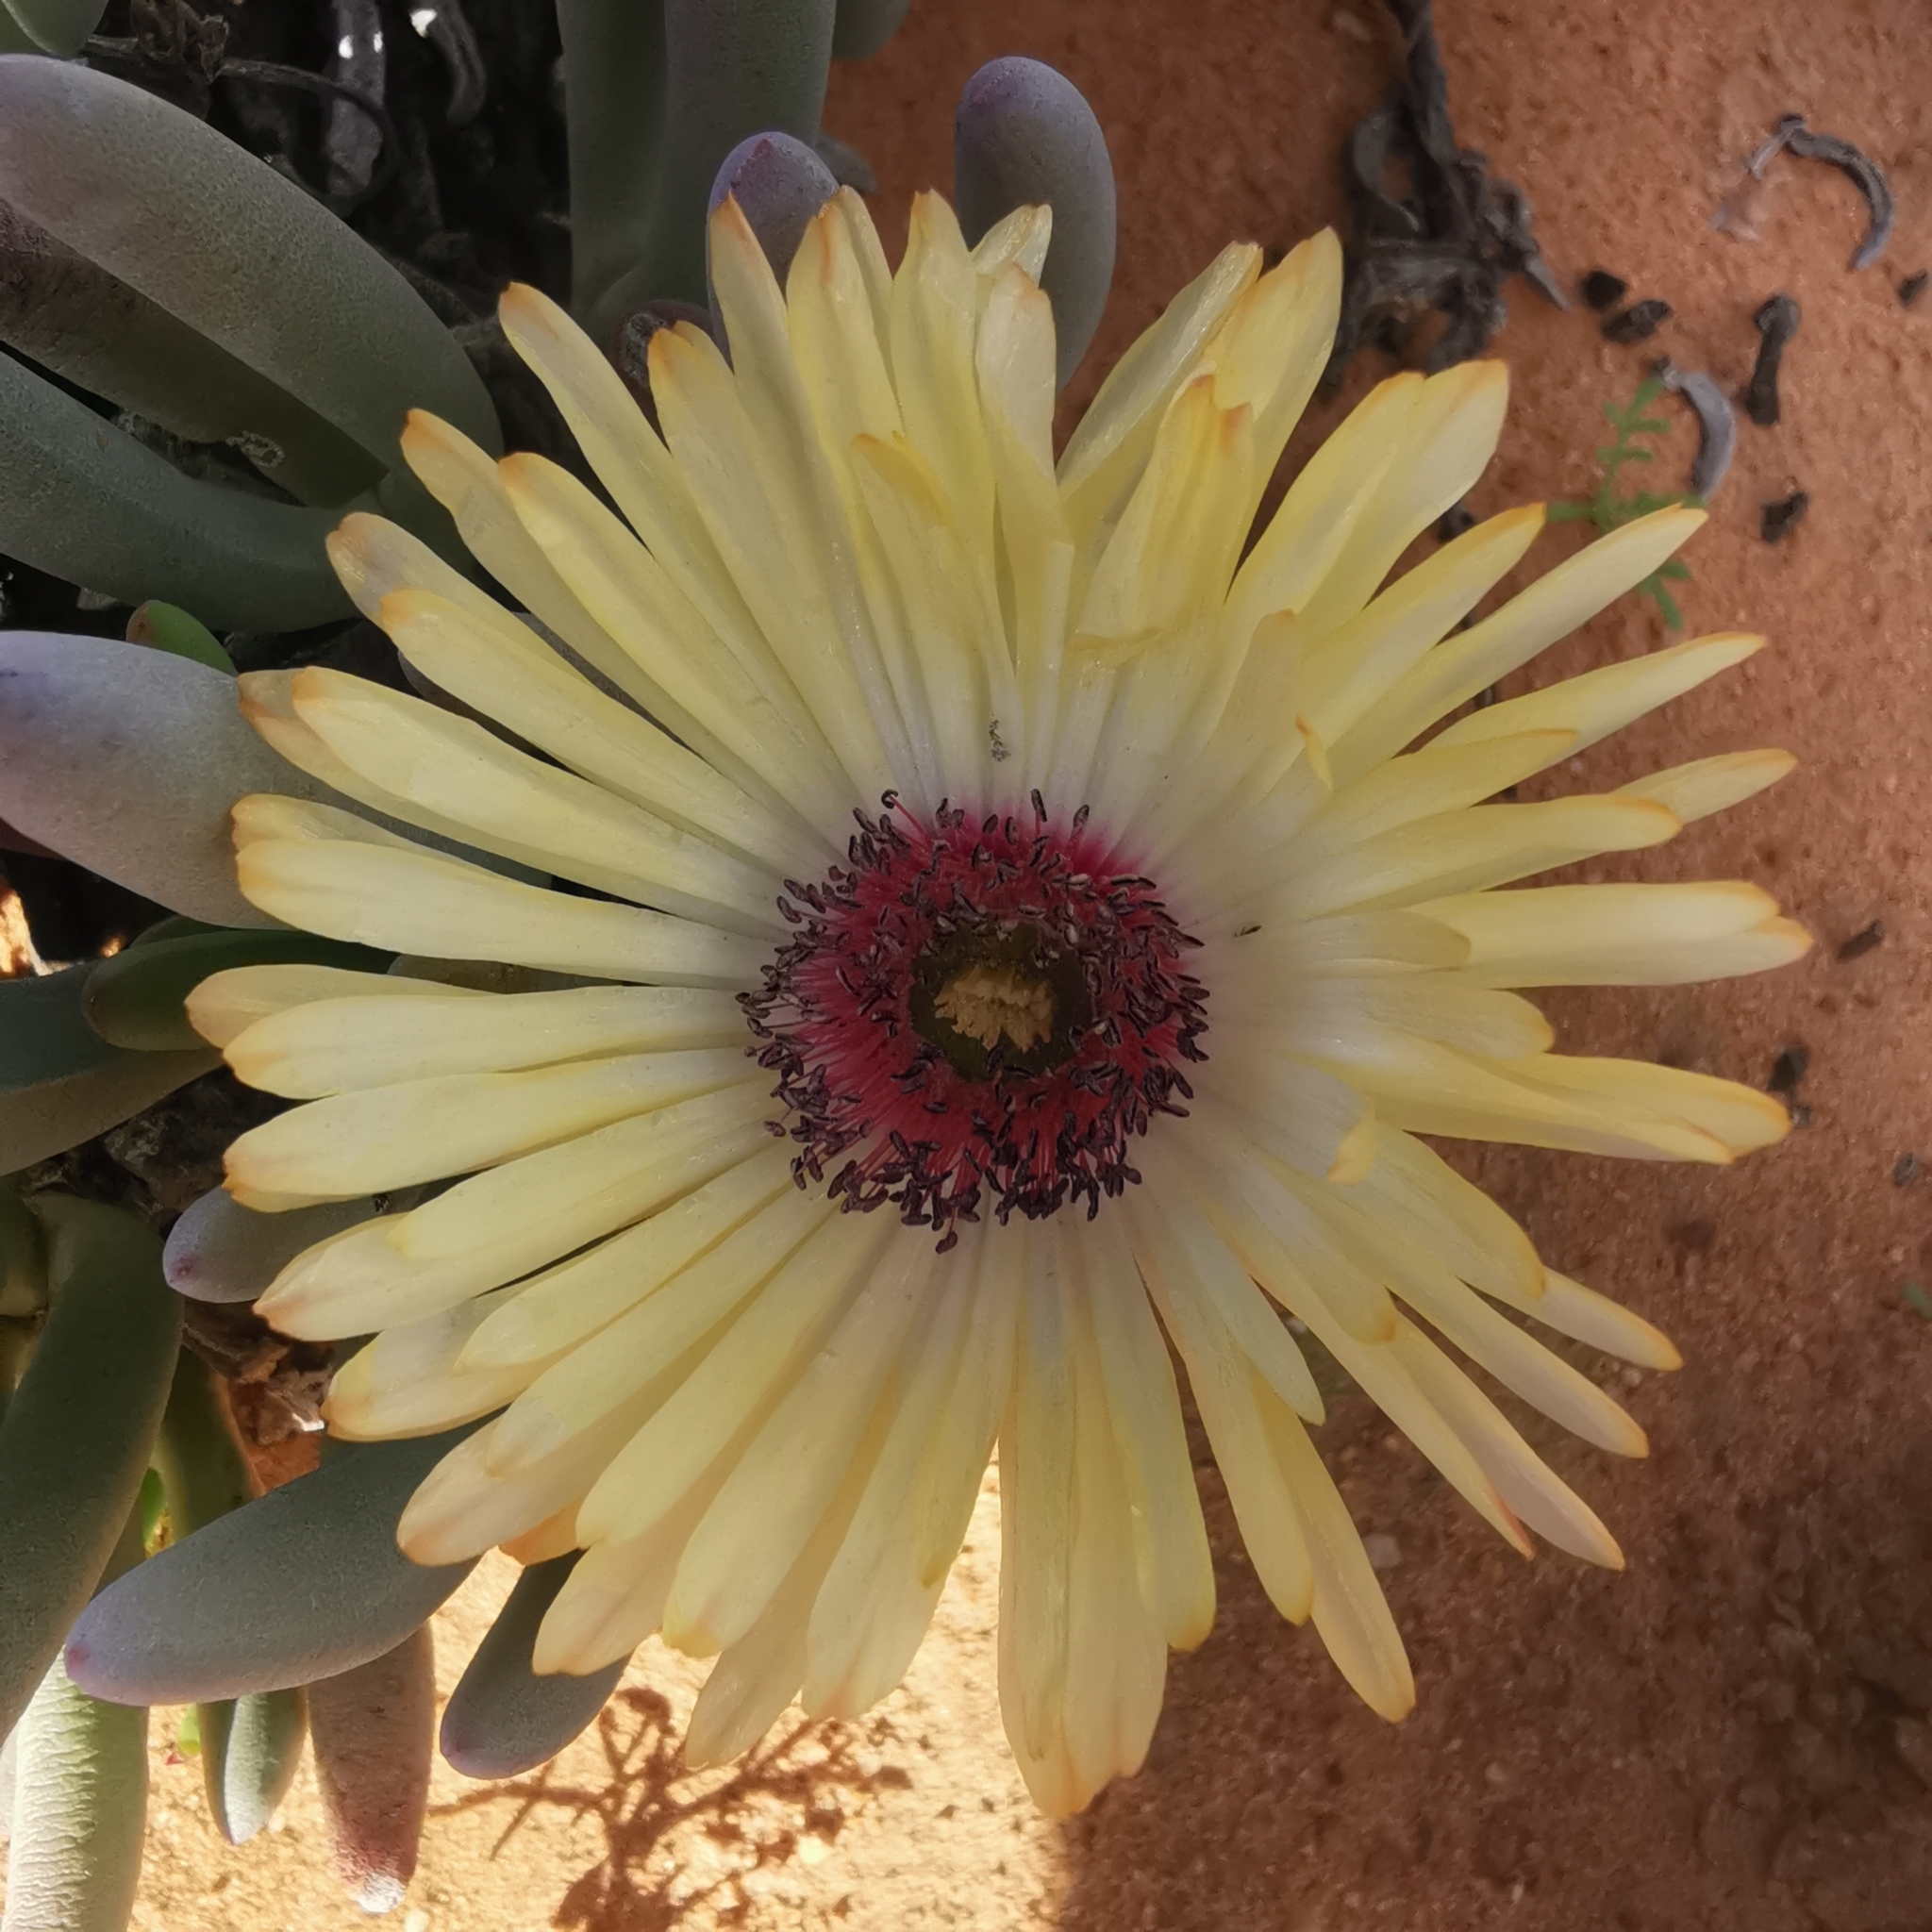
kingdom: Plantae
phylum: Tracheophyta
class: Magnoliopsida
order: Caryophyllales
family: Aizoaceae
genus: Cephalophyllum
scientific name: Cephalophyllum tricolorum
